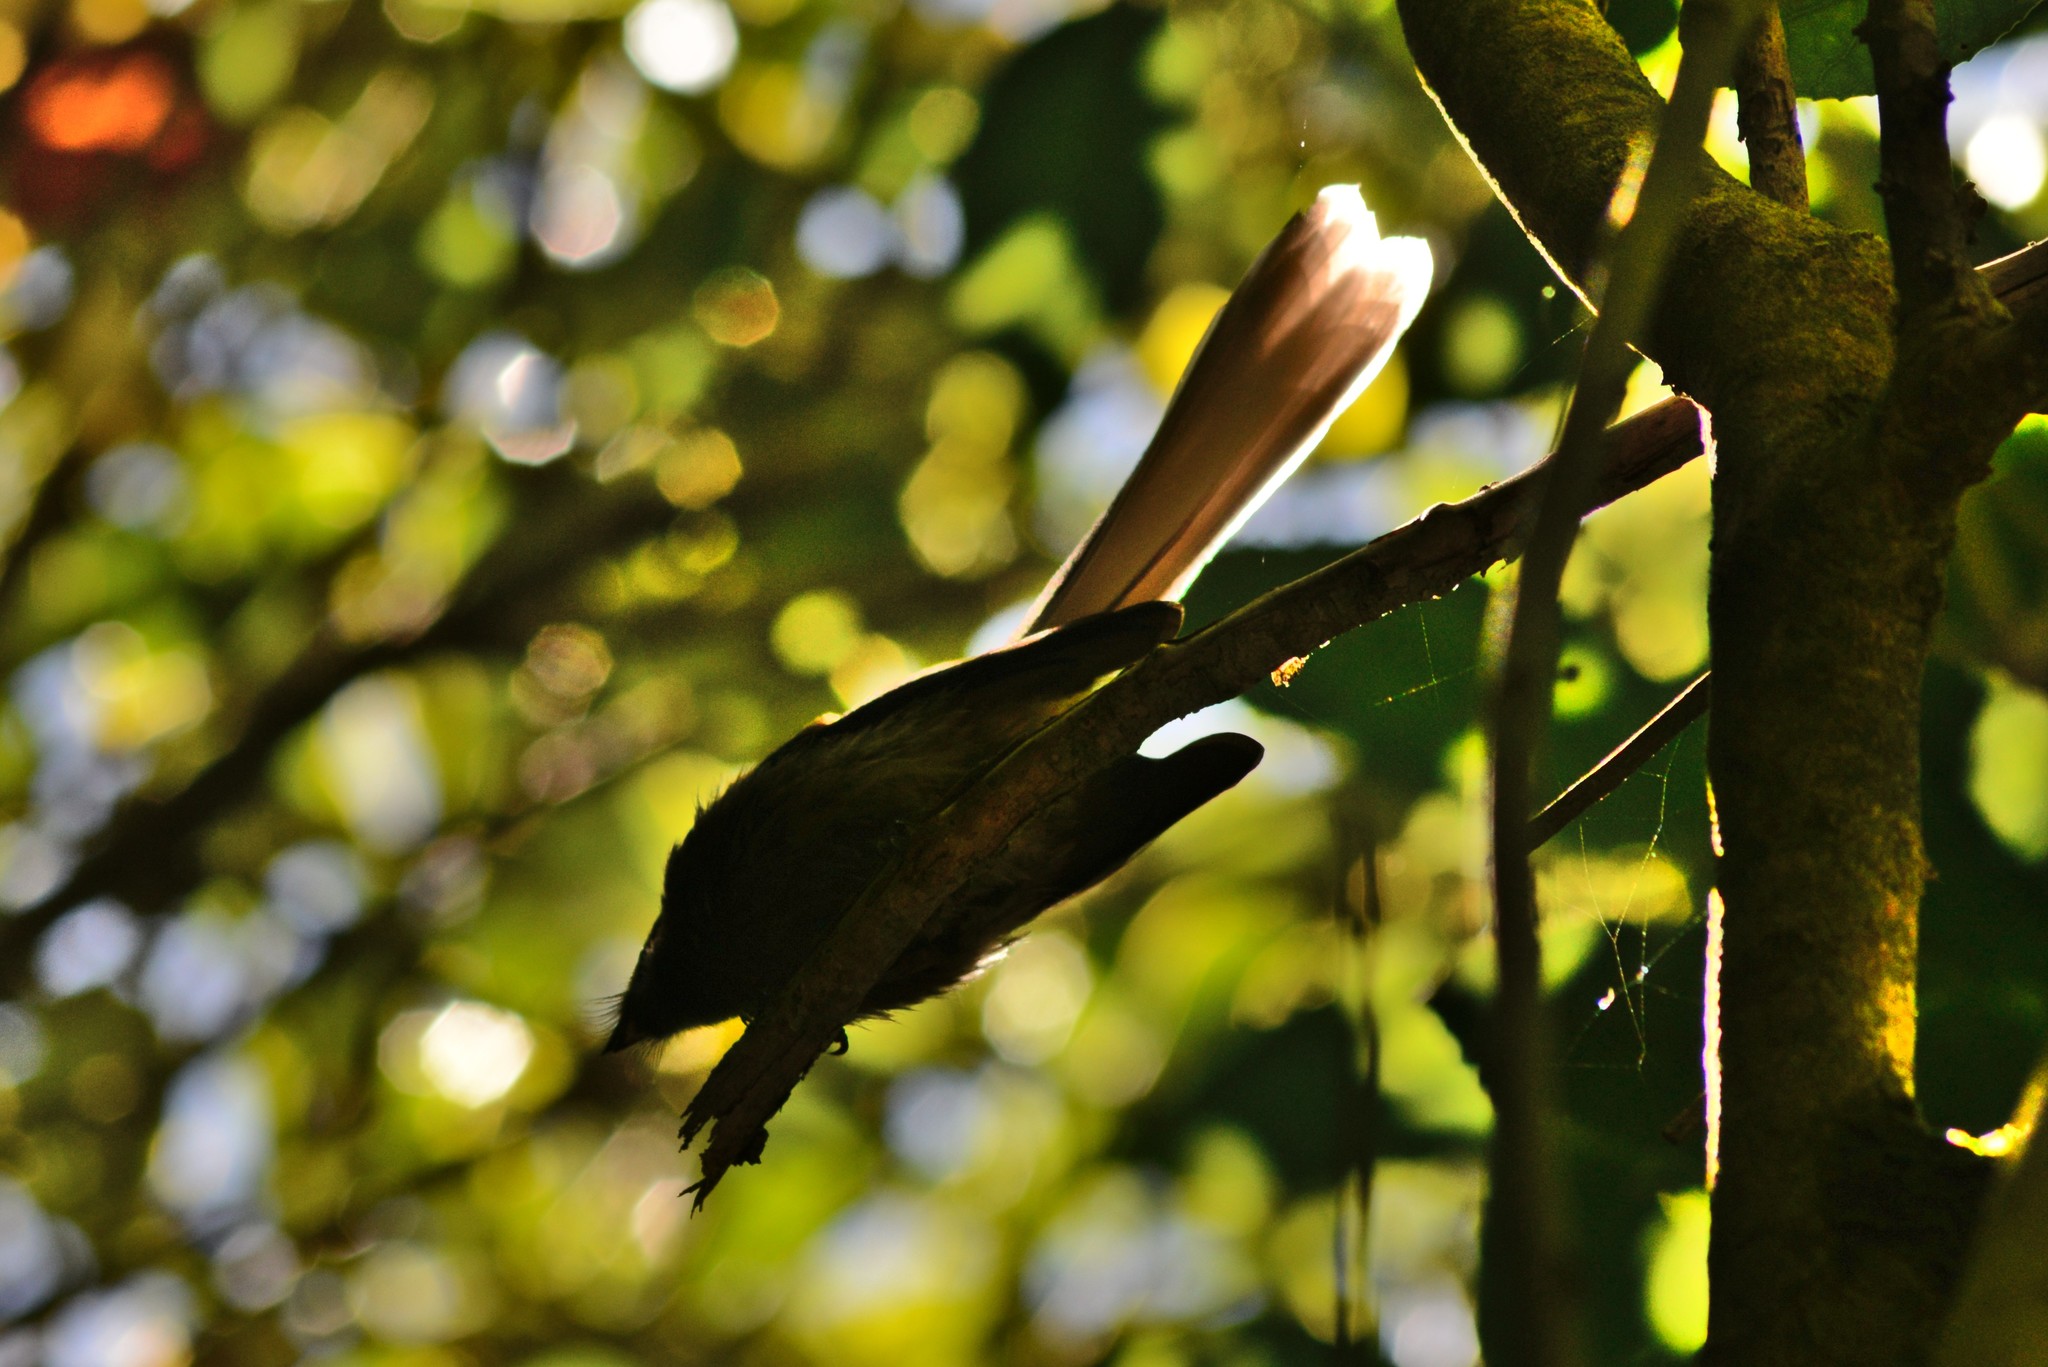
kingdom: Animalia
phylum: Chordata
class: Aves
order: Passeriformes
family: Rhipiduridae
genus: Rhipidura
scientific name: Rhipidura fuliginosa
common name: New zealand fantail
